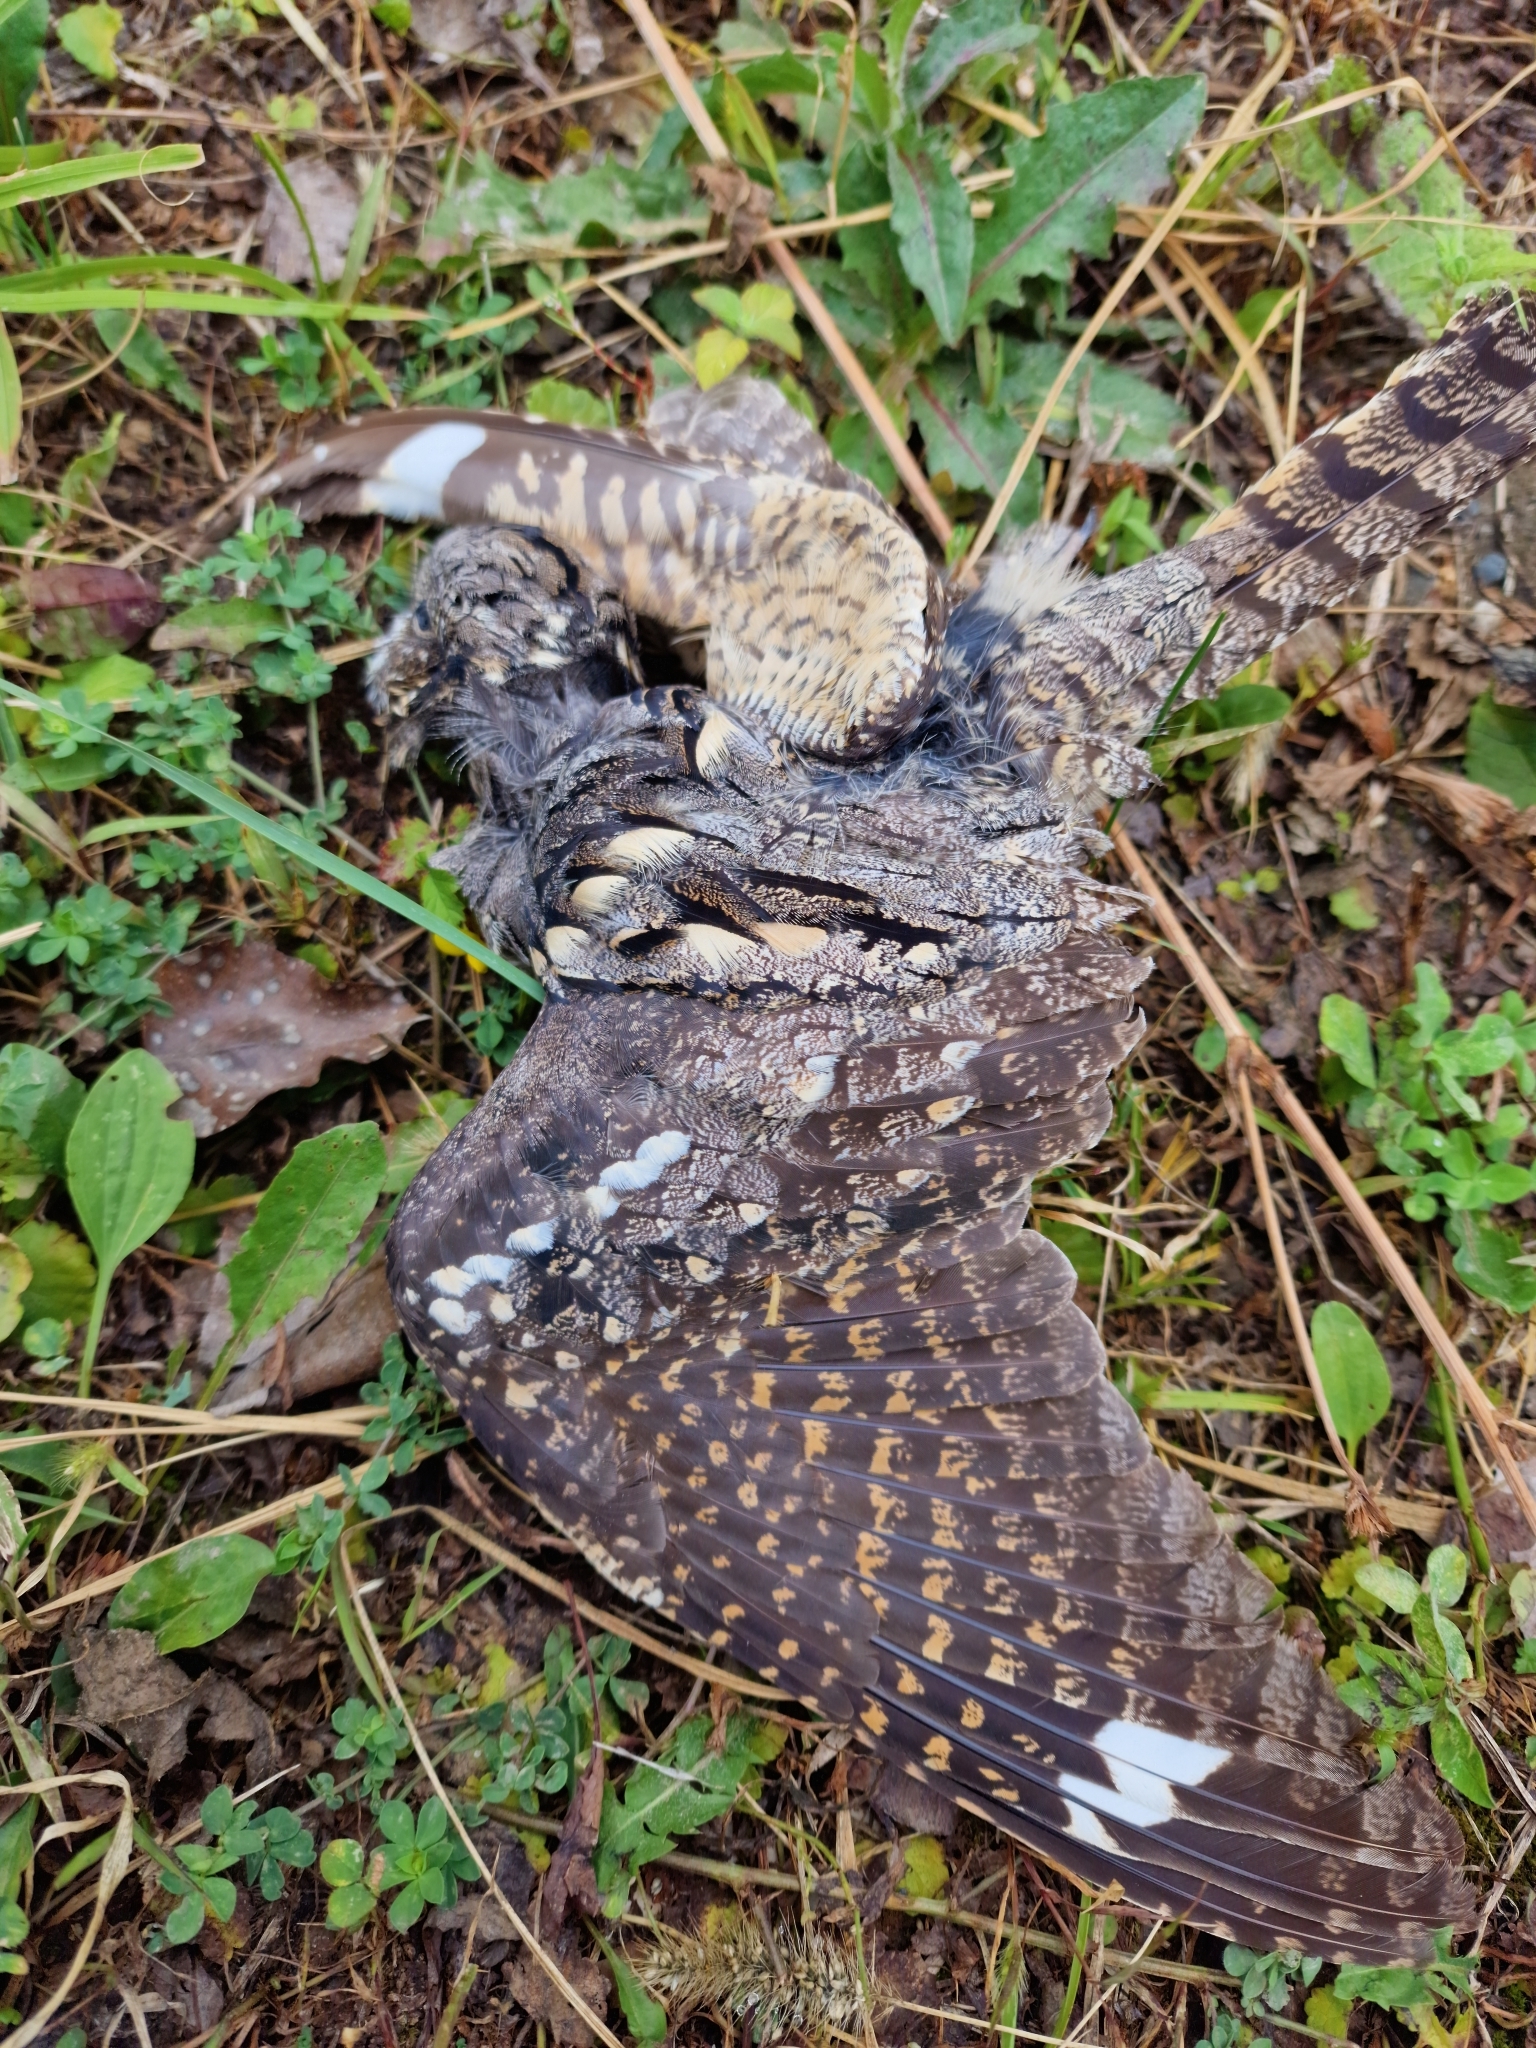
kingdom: Animalia
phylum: Chordata
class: Aves
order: Caprimulgiformes
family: Caprimulgidae
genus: Caprimulgus
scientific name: Caprimulgus europaeus
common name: European nightjar
